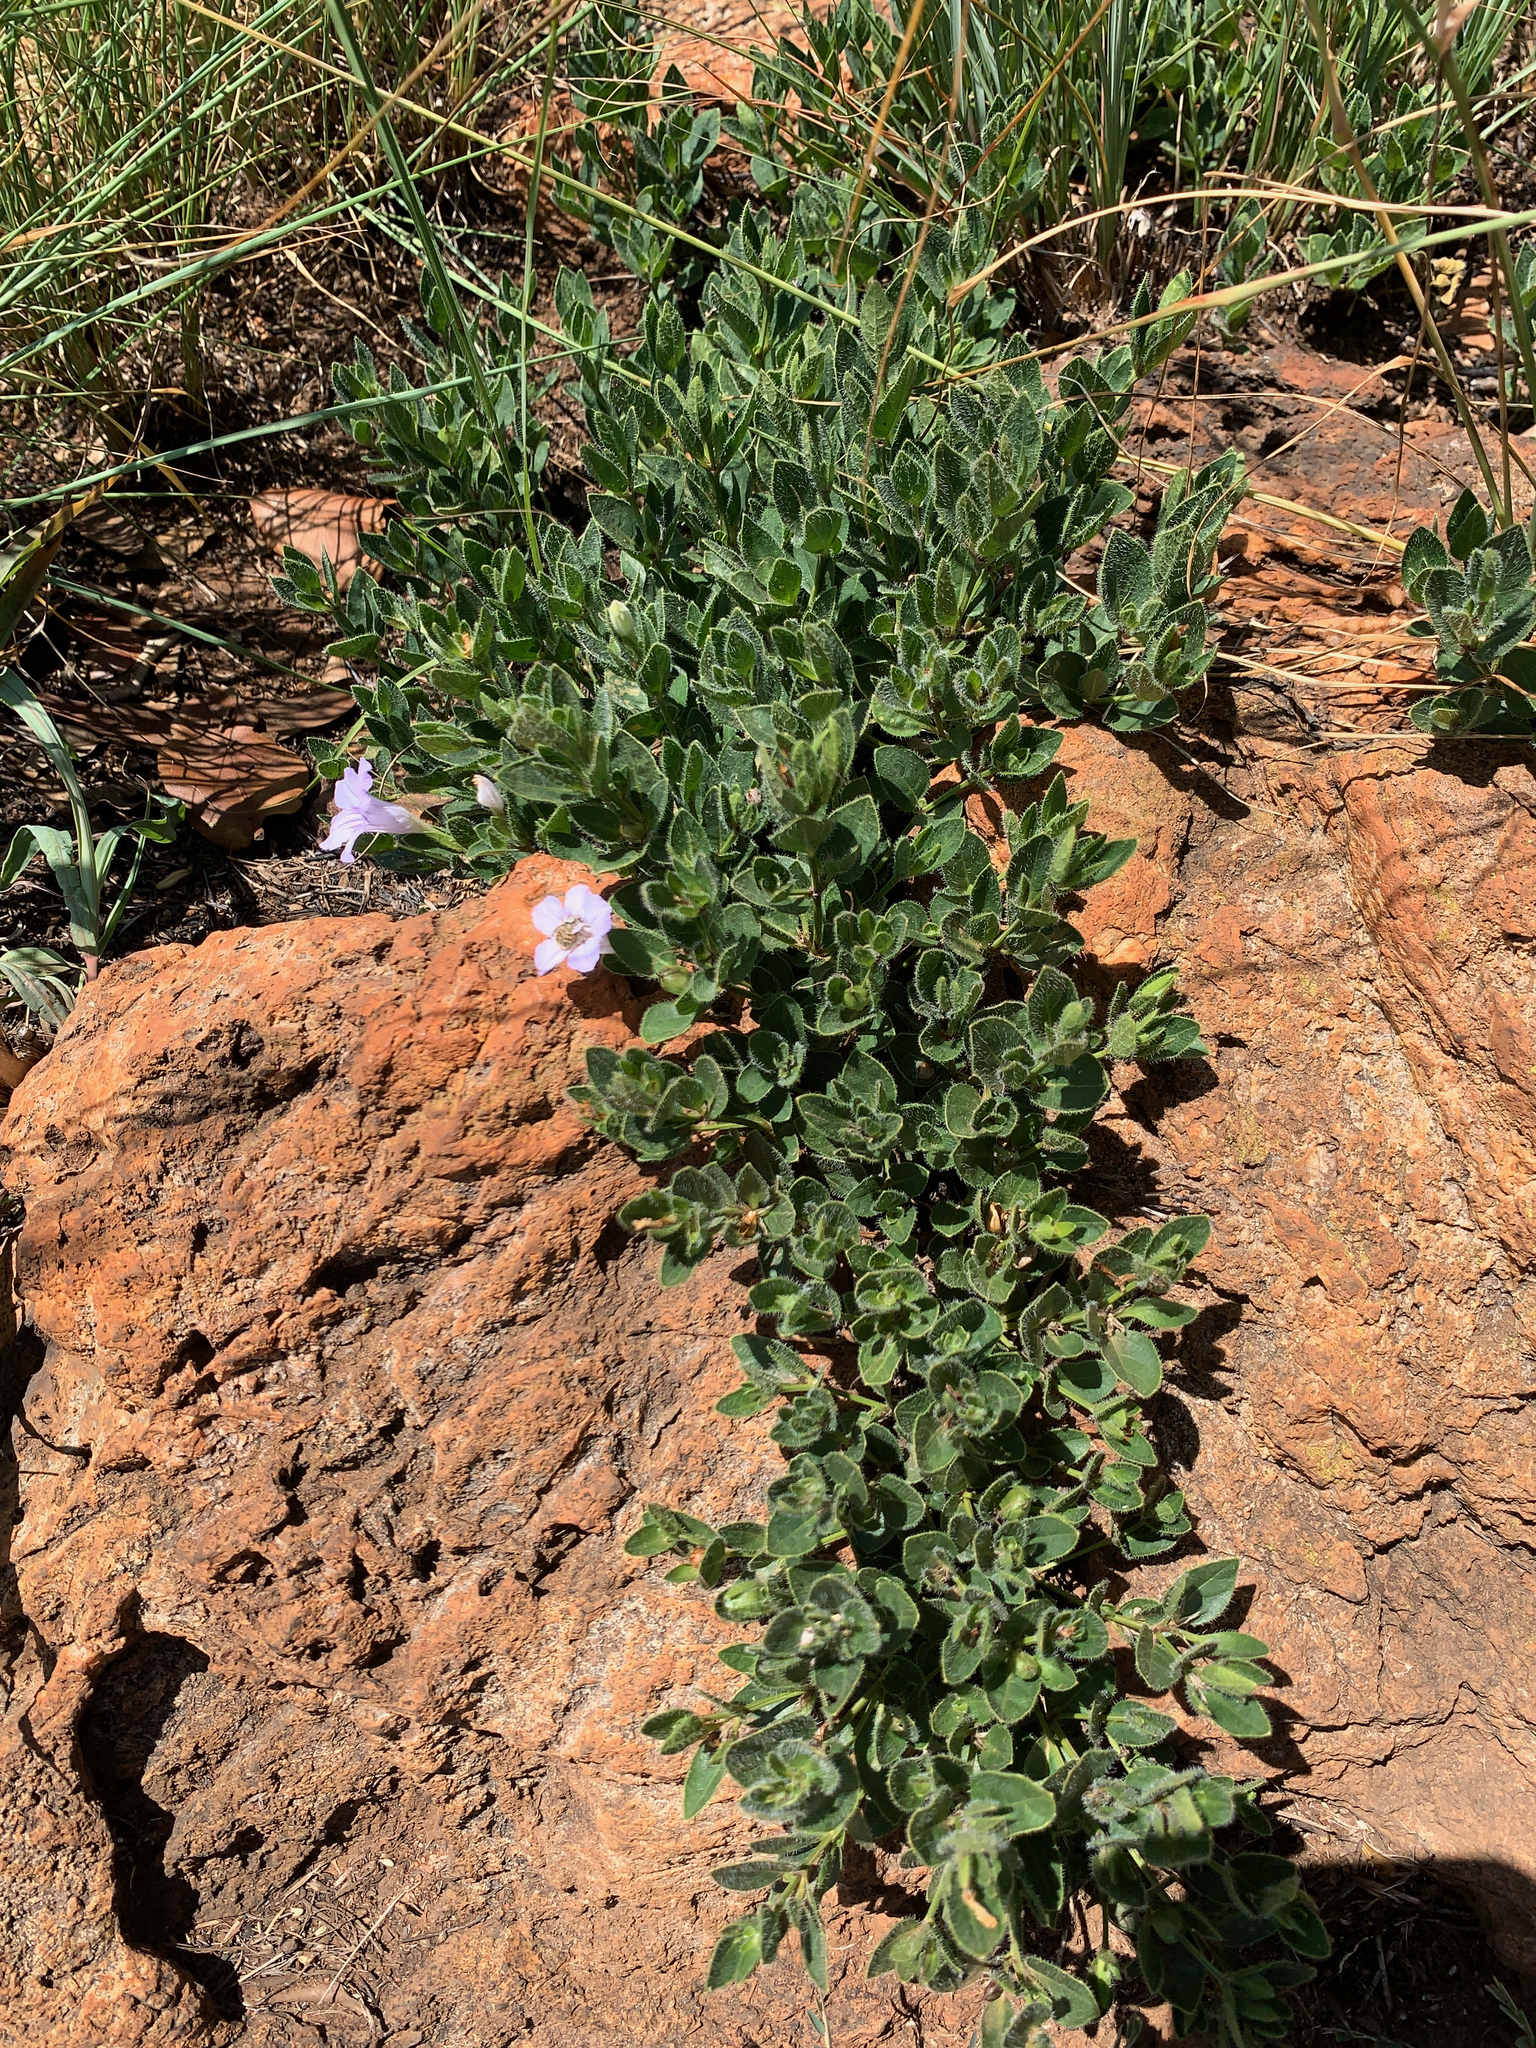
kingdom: Plantae
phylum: Tracheophyta
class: Magnoliopsida
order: Lamiales
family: Acanthaceae
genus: Ruellia
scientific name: Ruellia cordata
